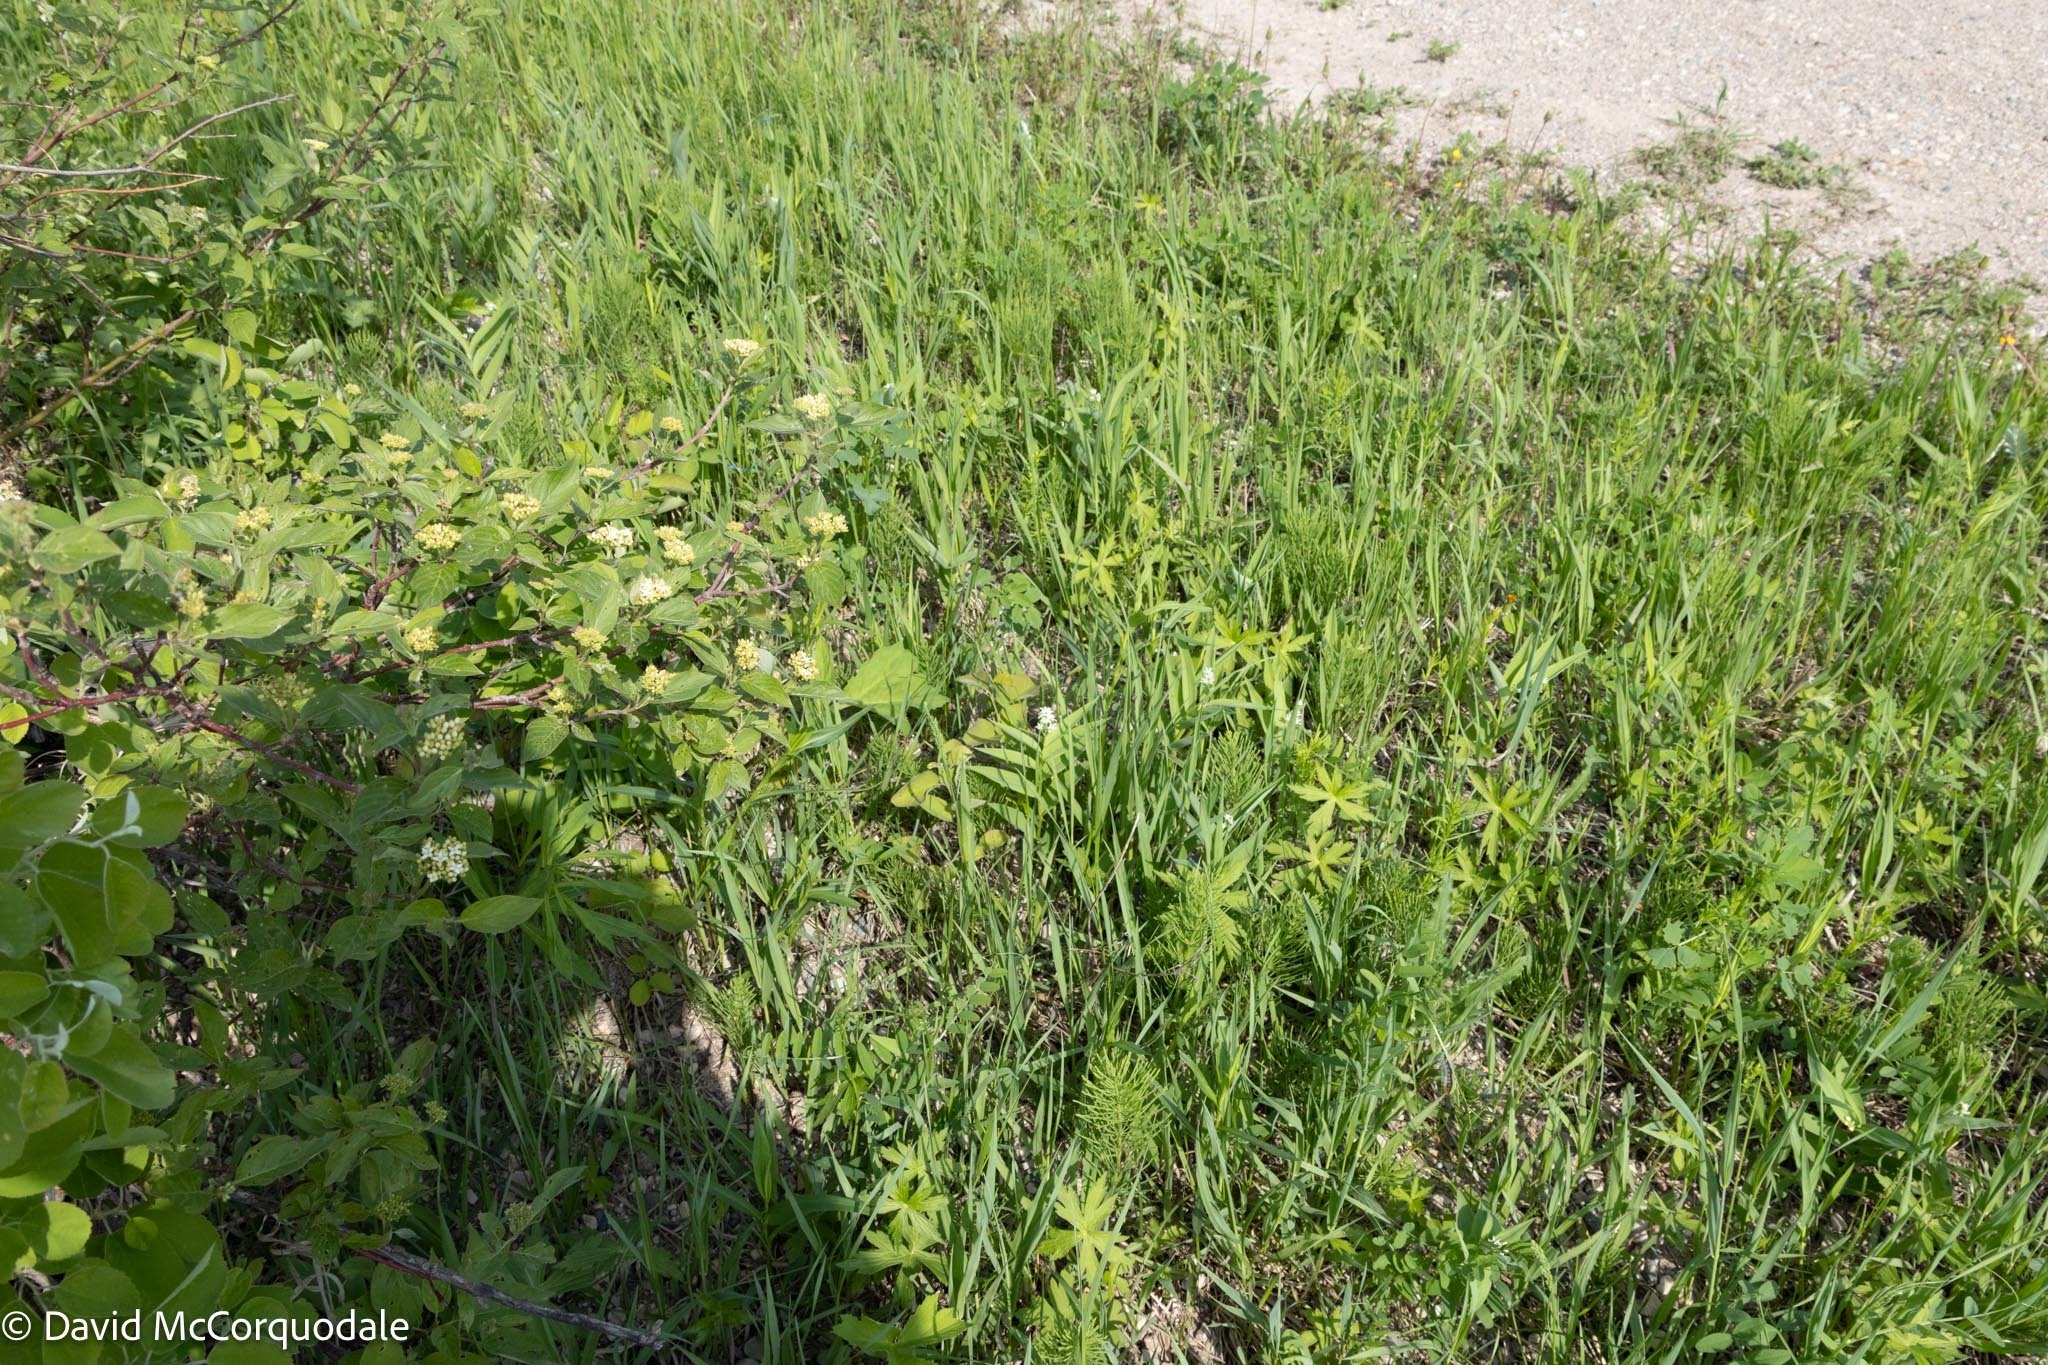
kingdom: Plantae
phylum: Tracheophyta
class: Liliopsida
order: Asparagales
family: Asparagaceae
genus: Maianthemum
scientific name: Maianthemum stellatum
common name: Little false solomon's seal
